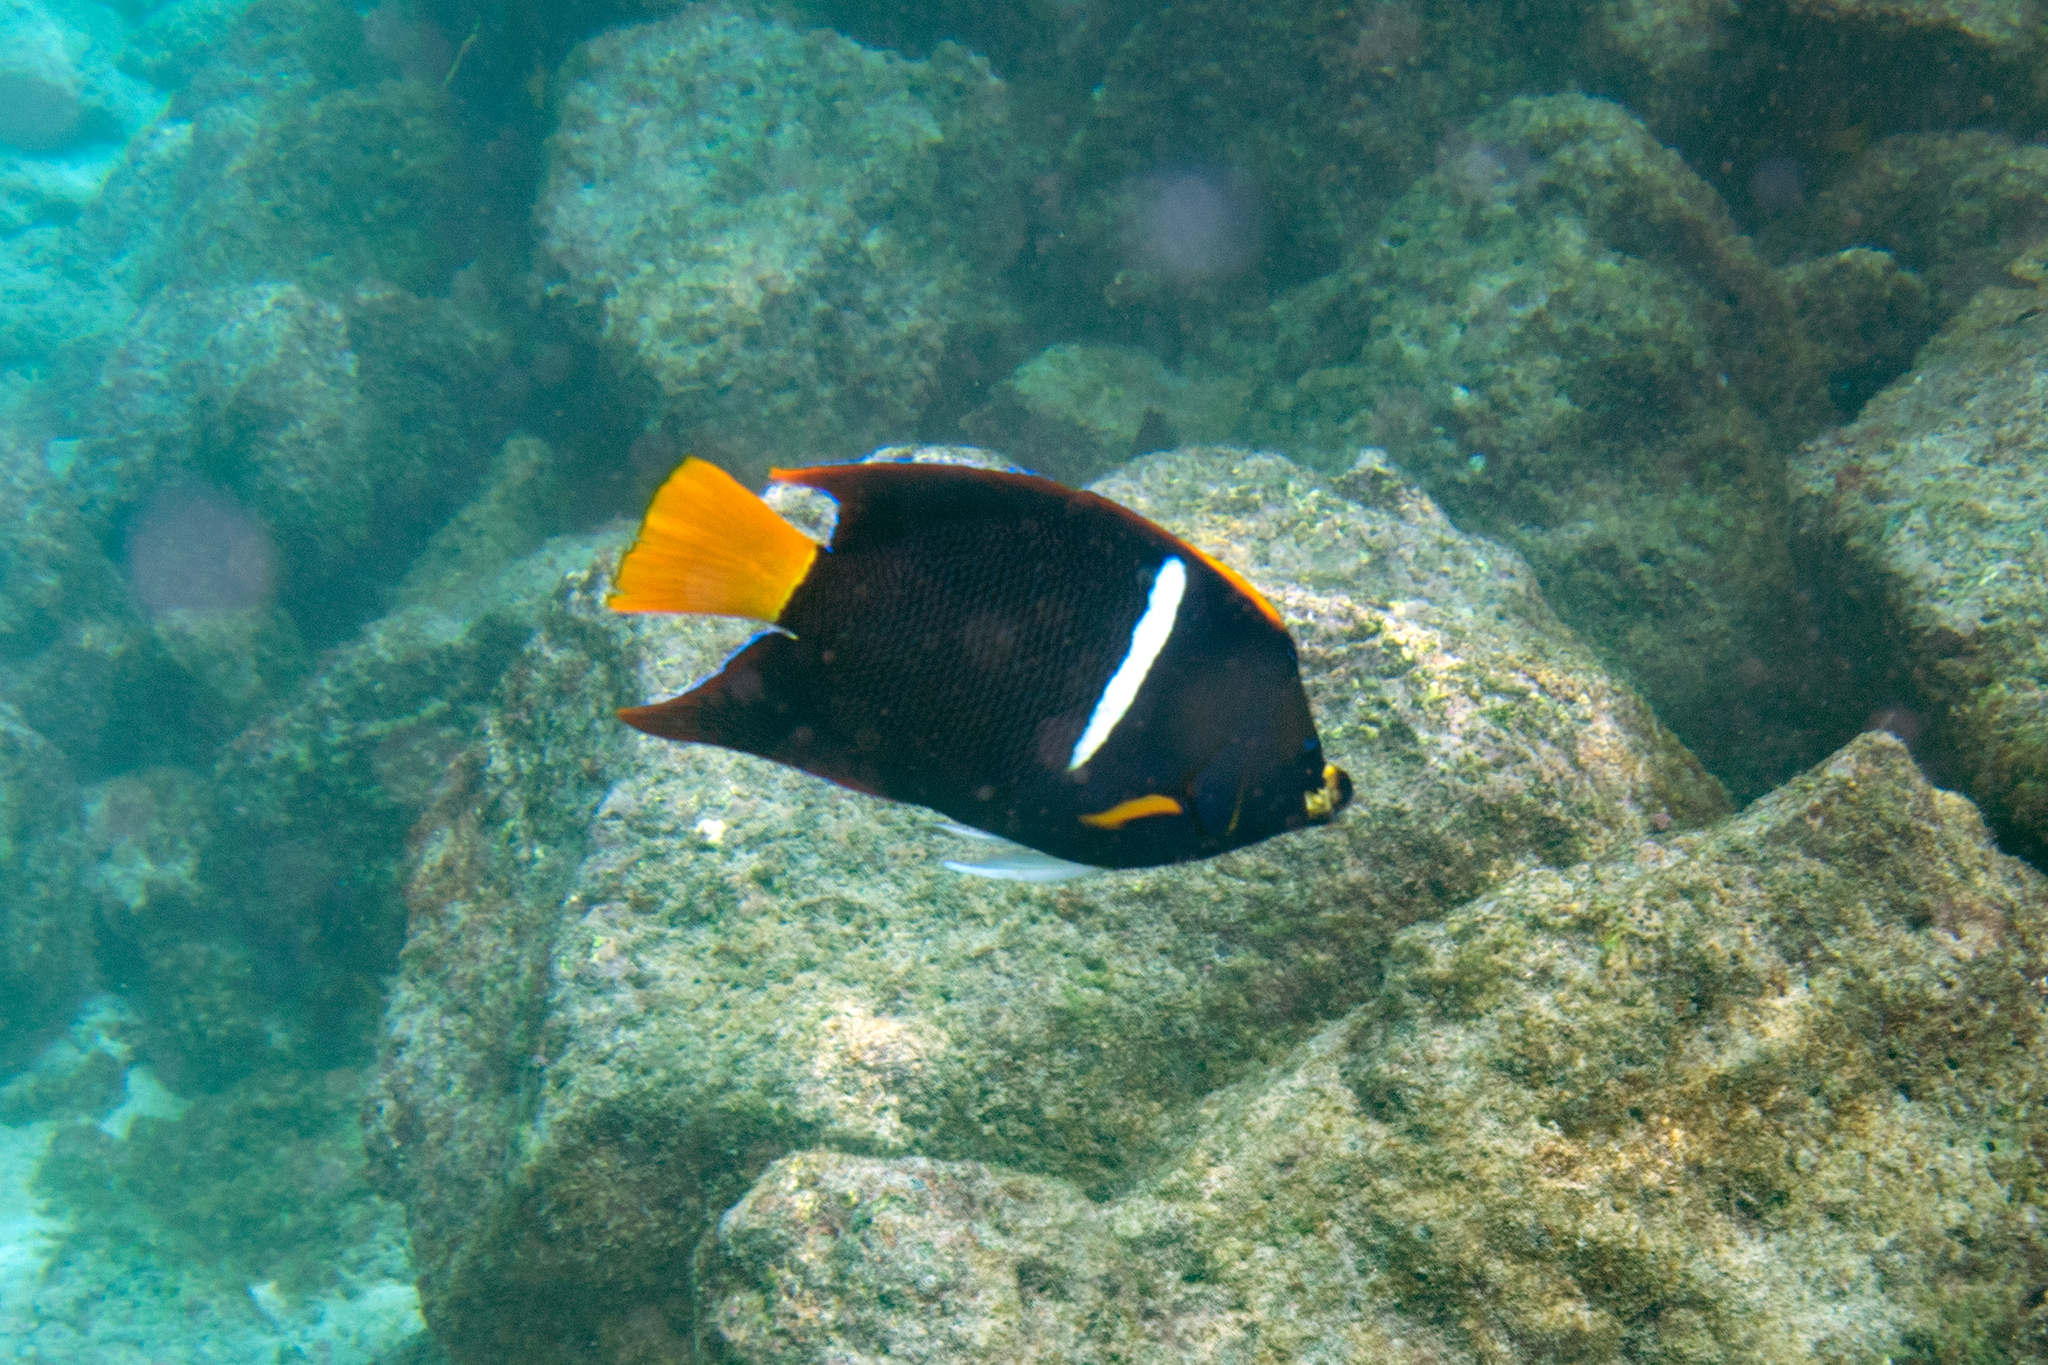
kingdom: Animalia
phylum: Chordata
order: Perciformes
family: Pomacanthidae
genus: Holacanthus
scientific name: Holacanthus passer
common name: King angelfish
